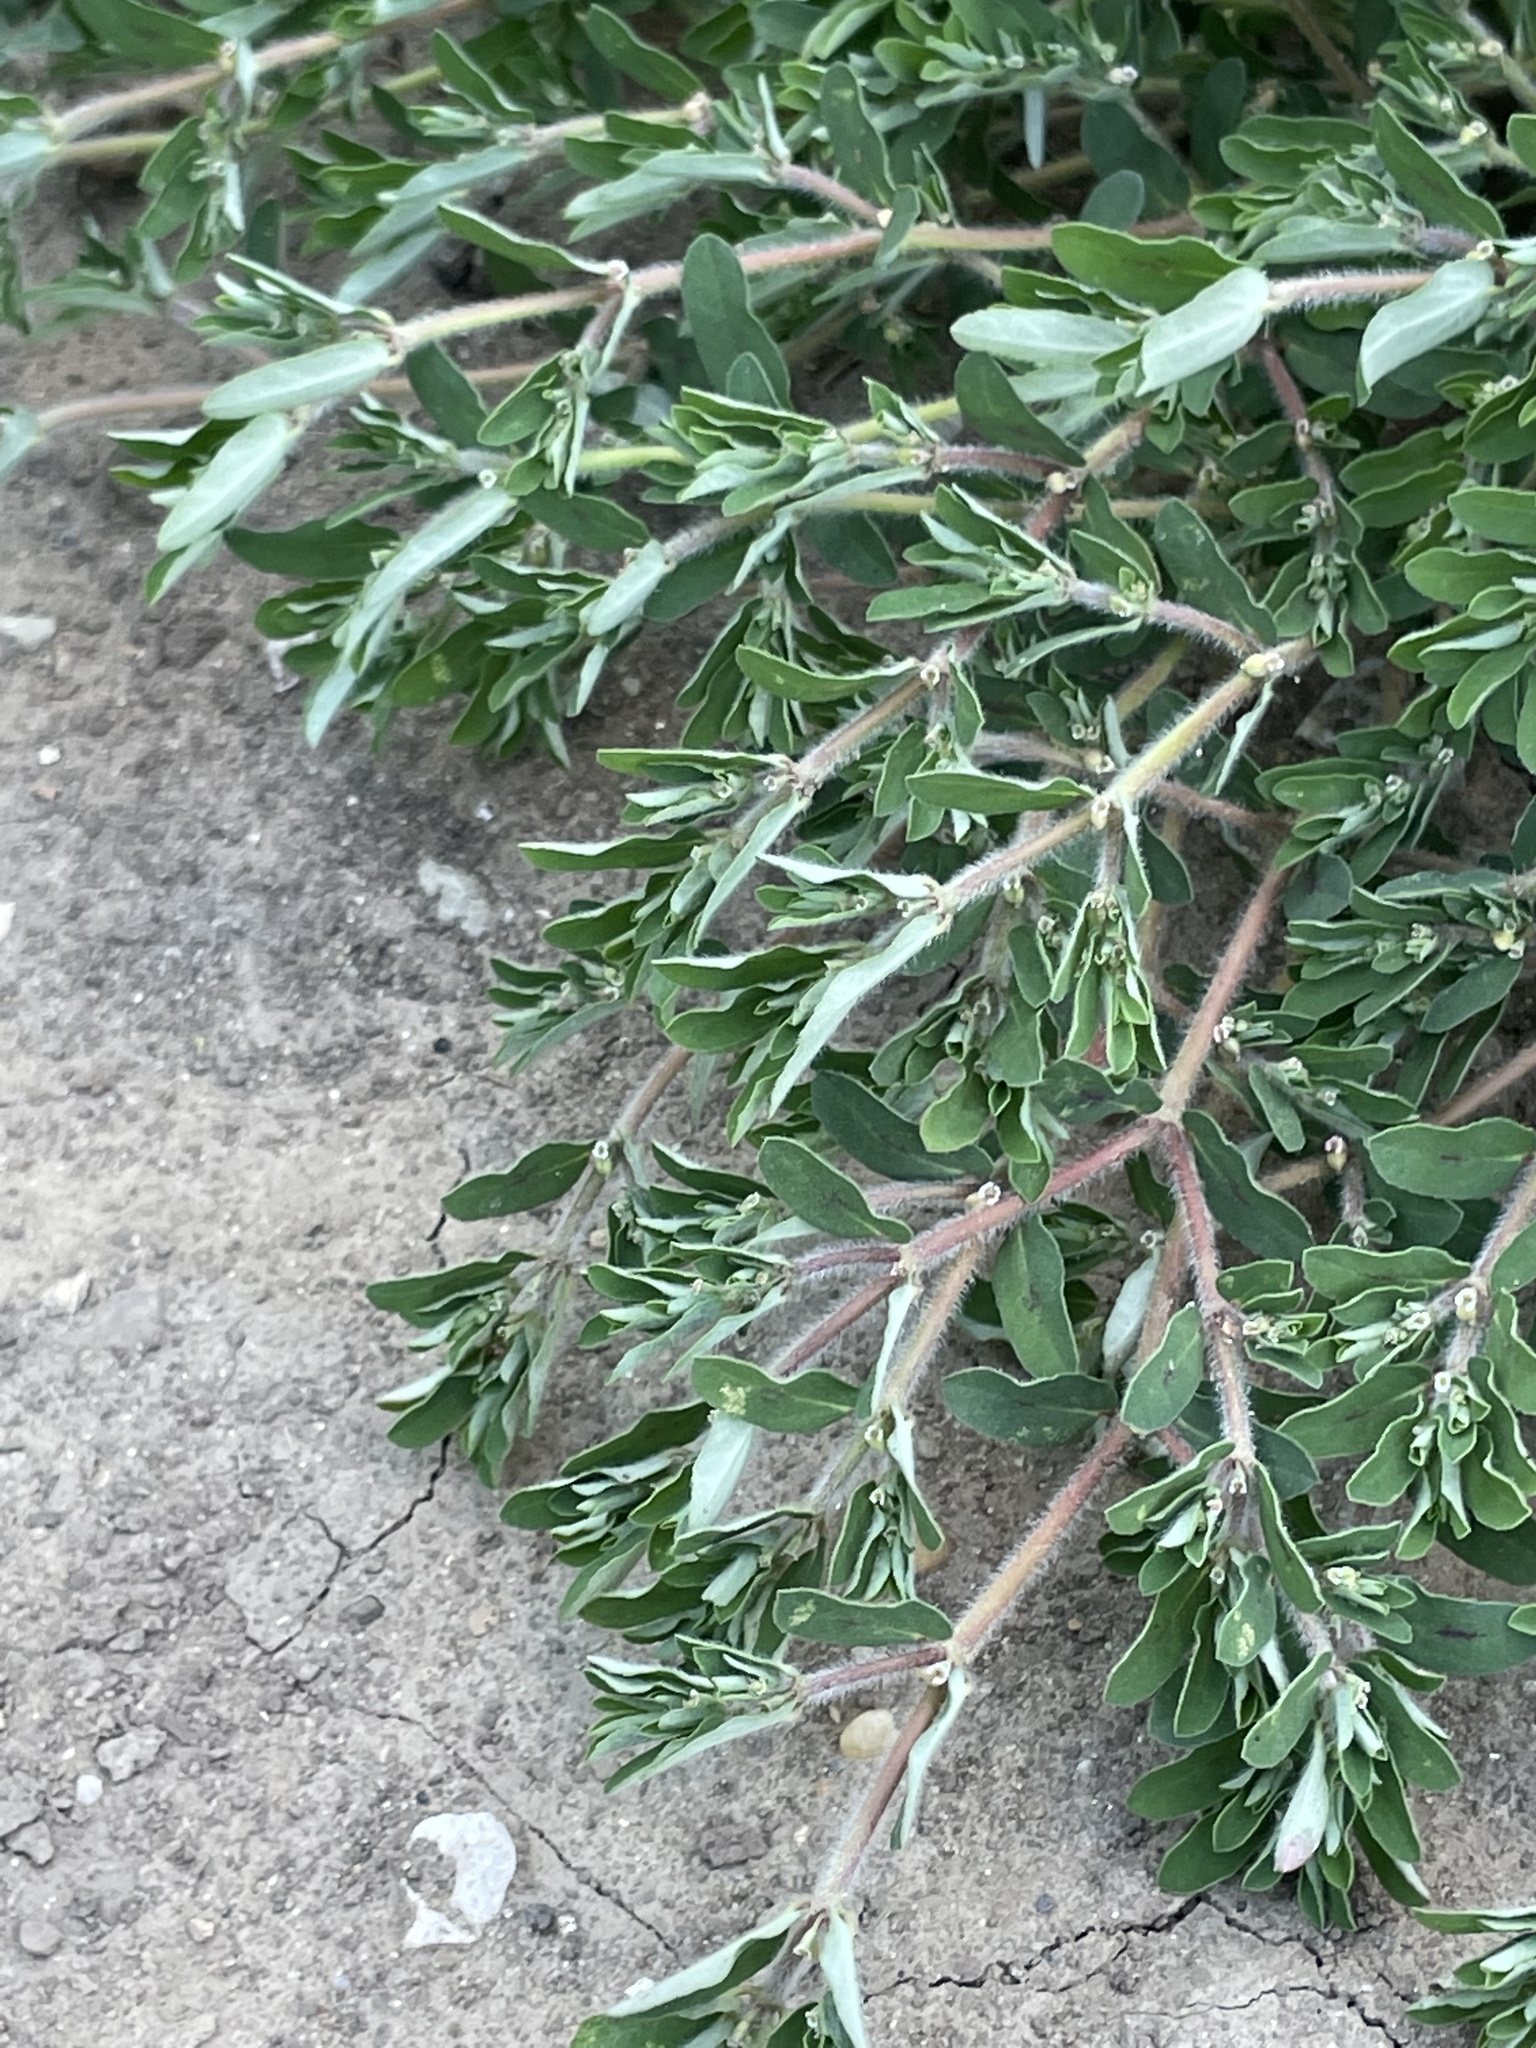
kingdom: Plantae
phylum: Tracheophyta
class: Magnoliopsida
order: Malpighiales
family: Euphorbiaceae
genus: Euphorbia
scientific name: Euphorbia maculata
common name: Spotted spurge
